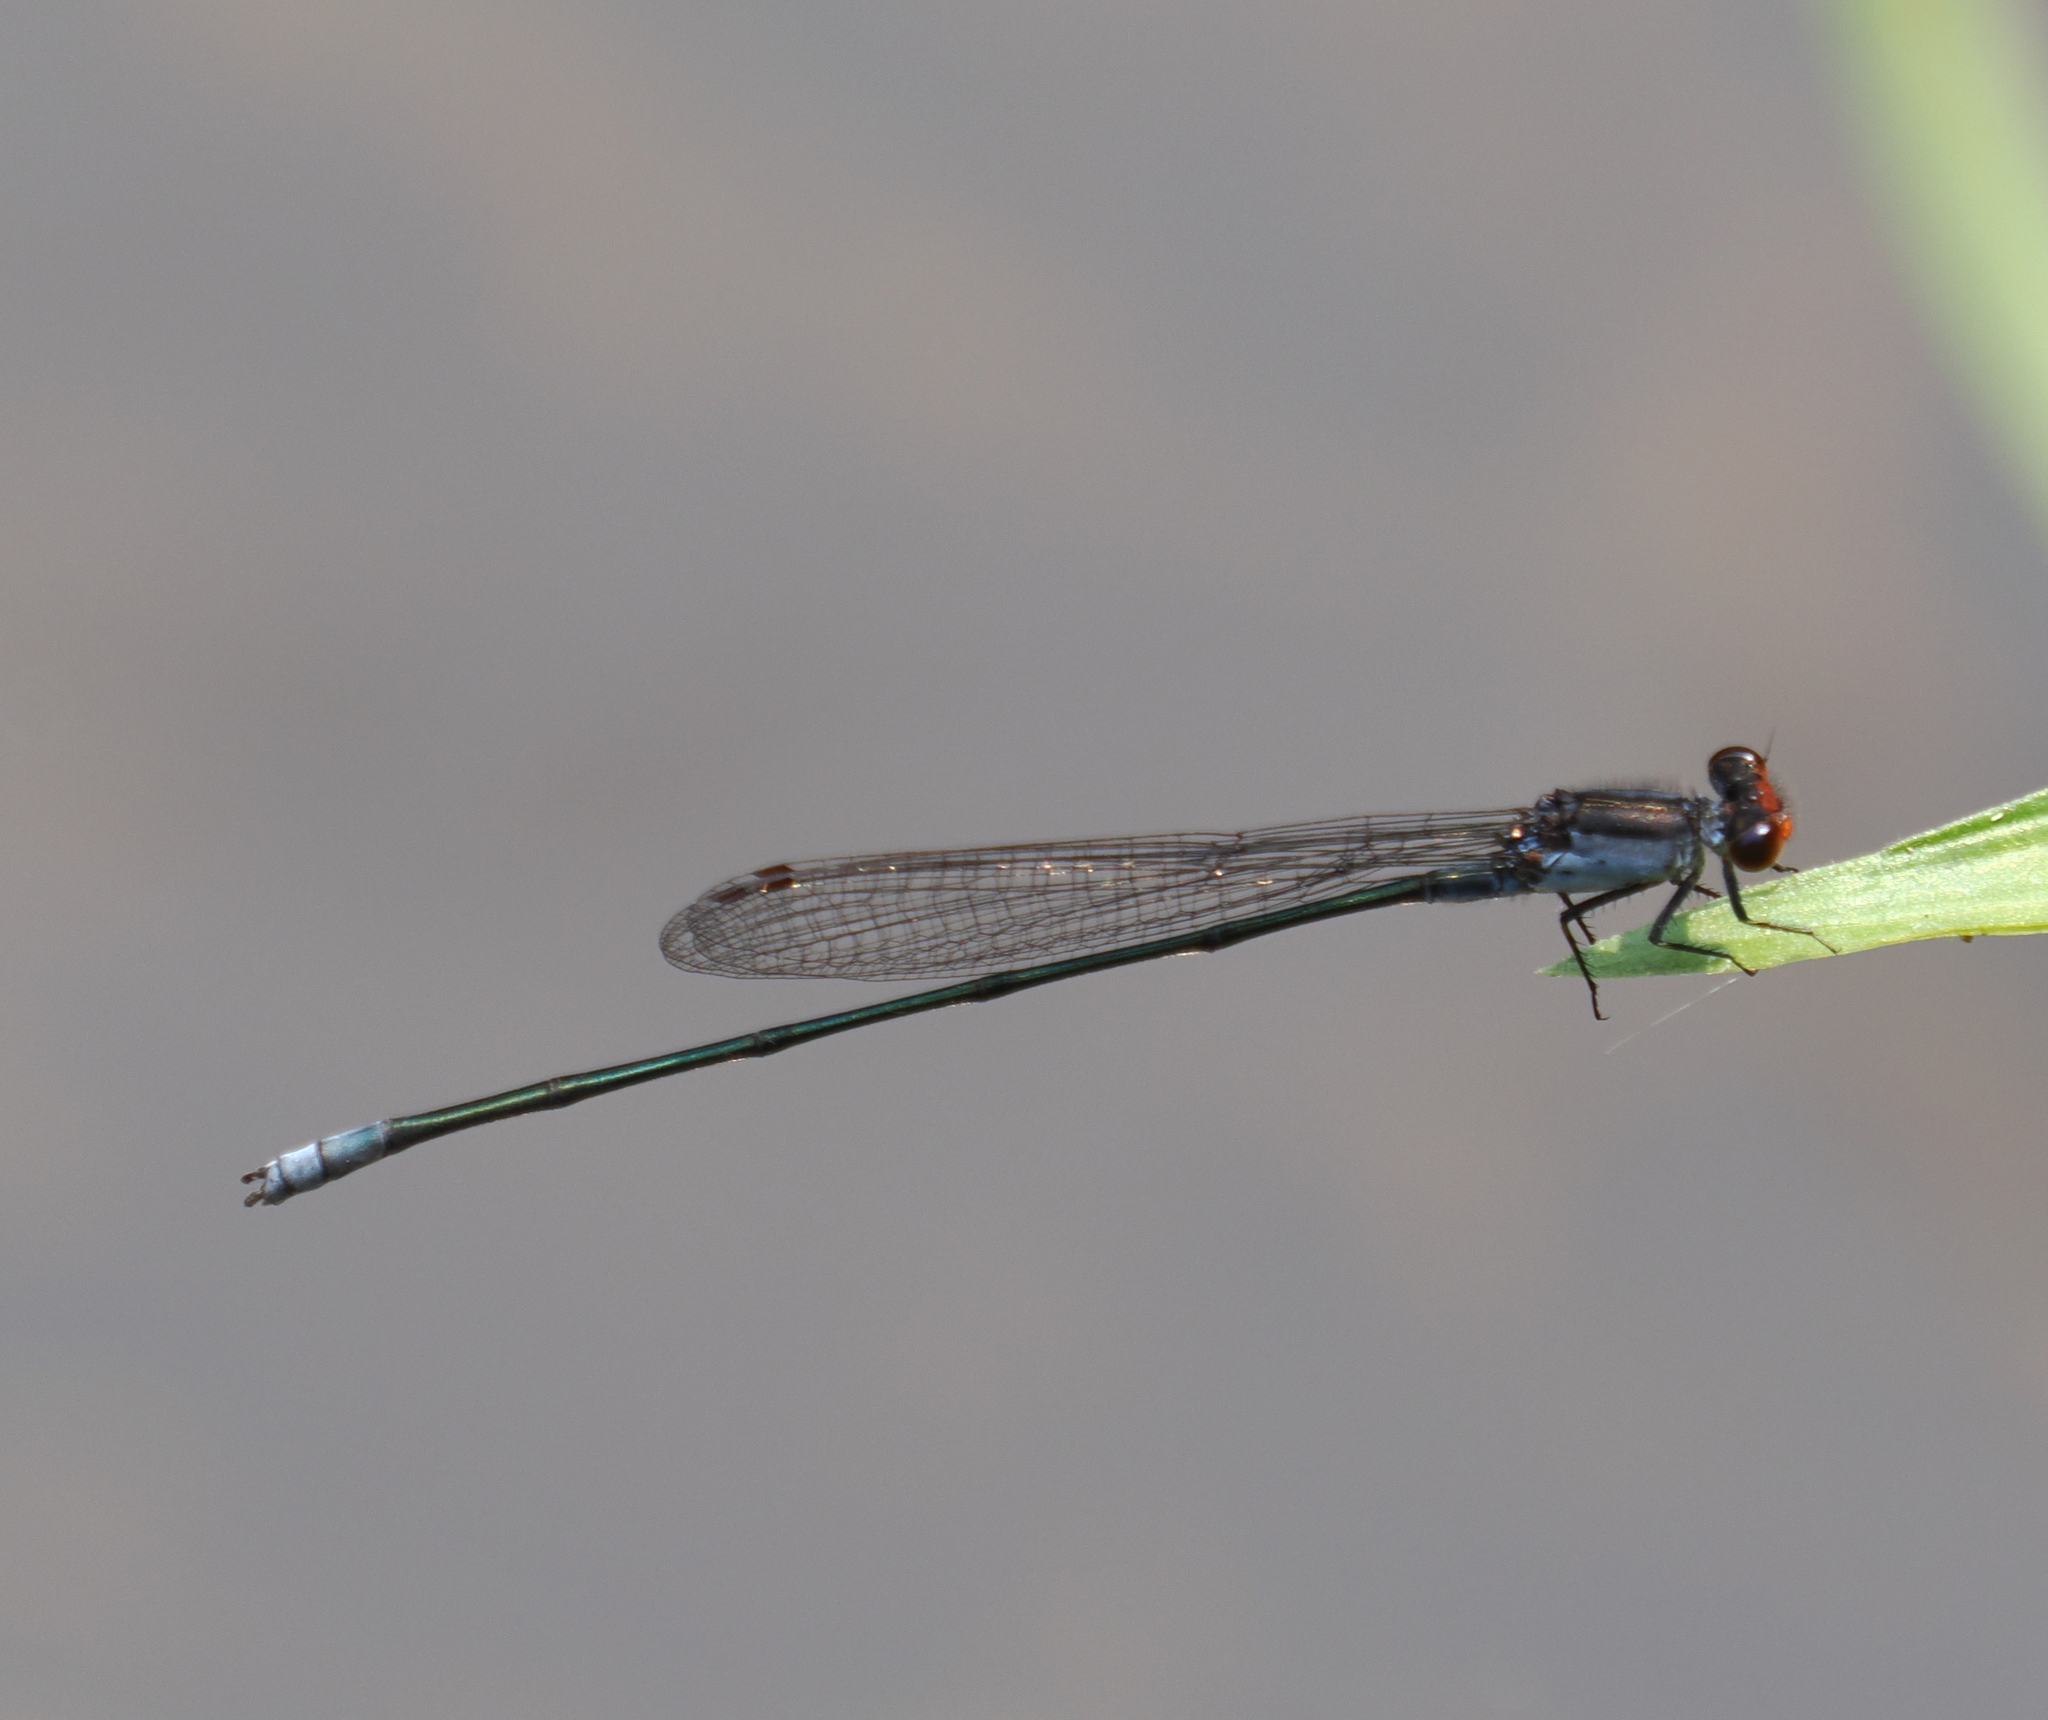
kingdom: Animalia
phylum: Arthropoda
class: Insecta
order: Odonata
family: Coenagrionidae
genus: Pseudagrion
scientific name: Pseudagrion pruinosum
